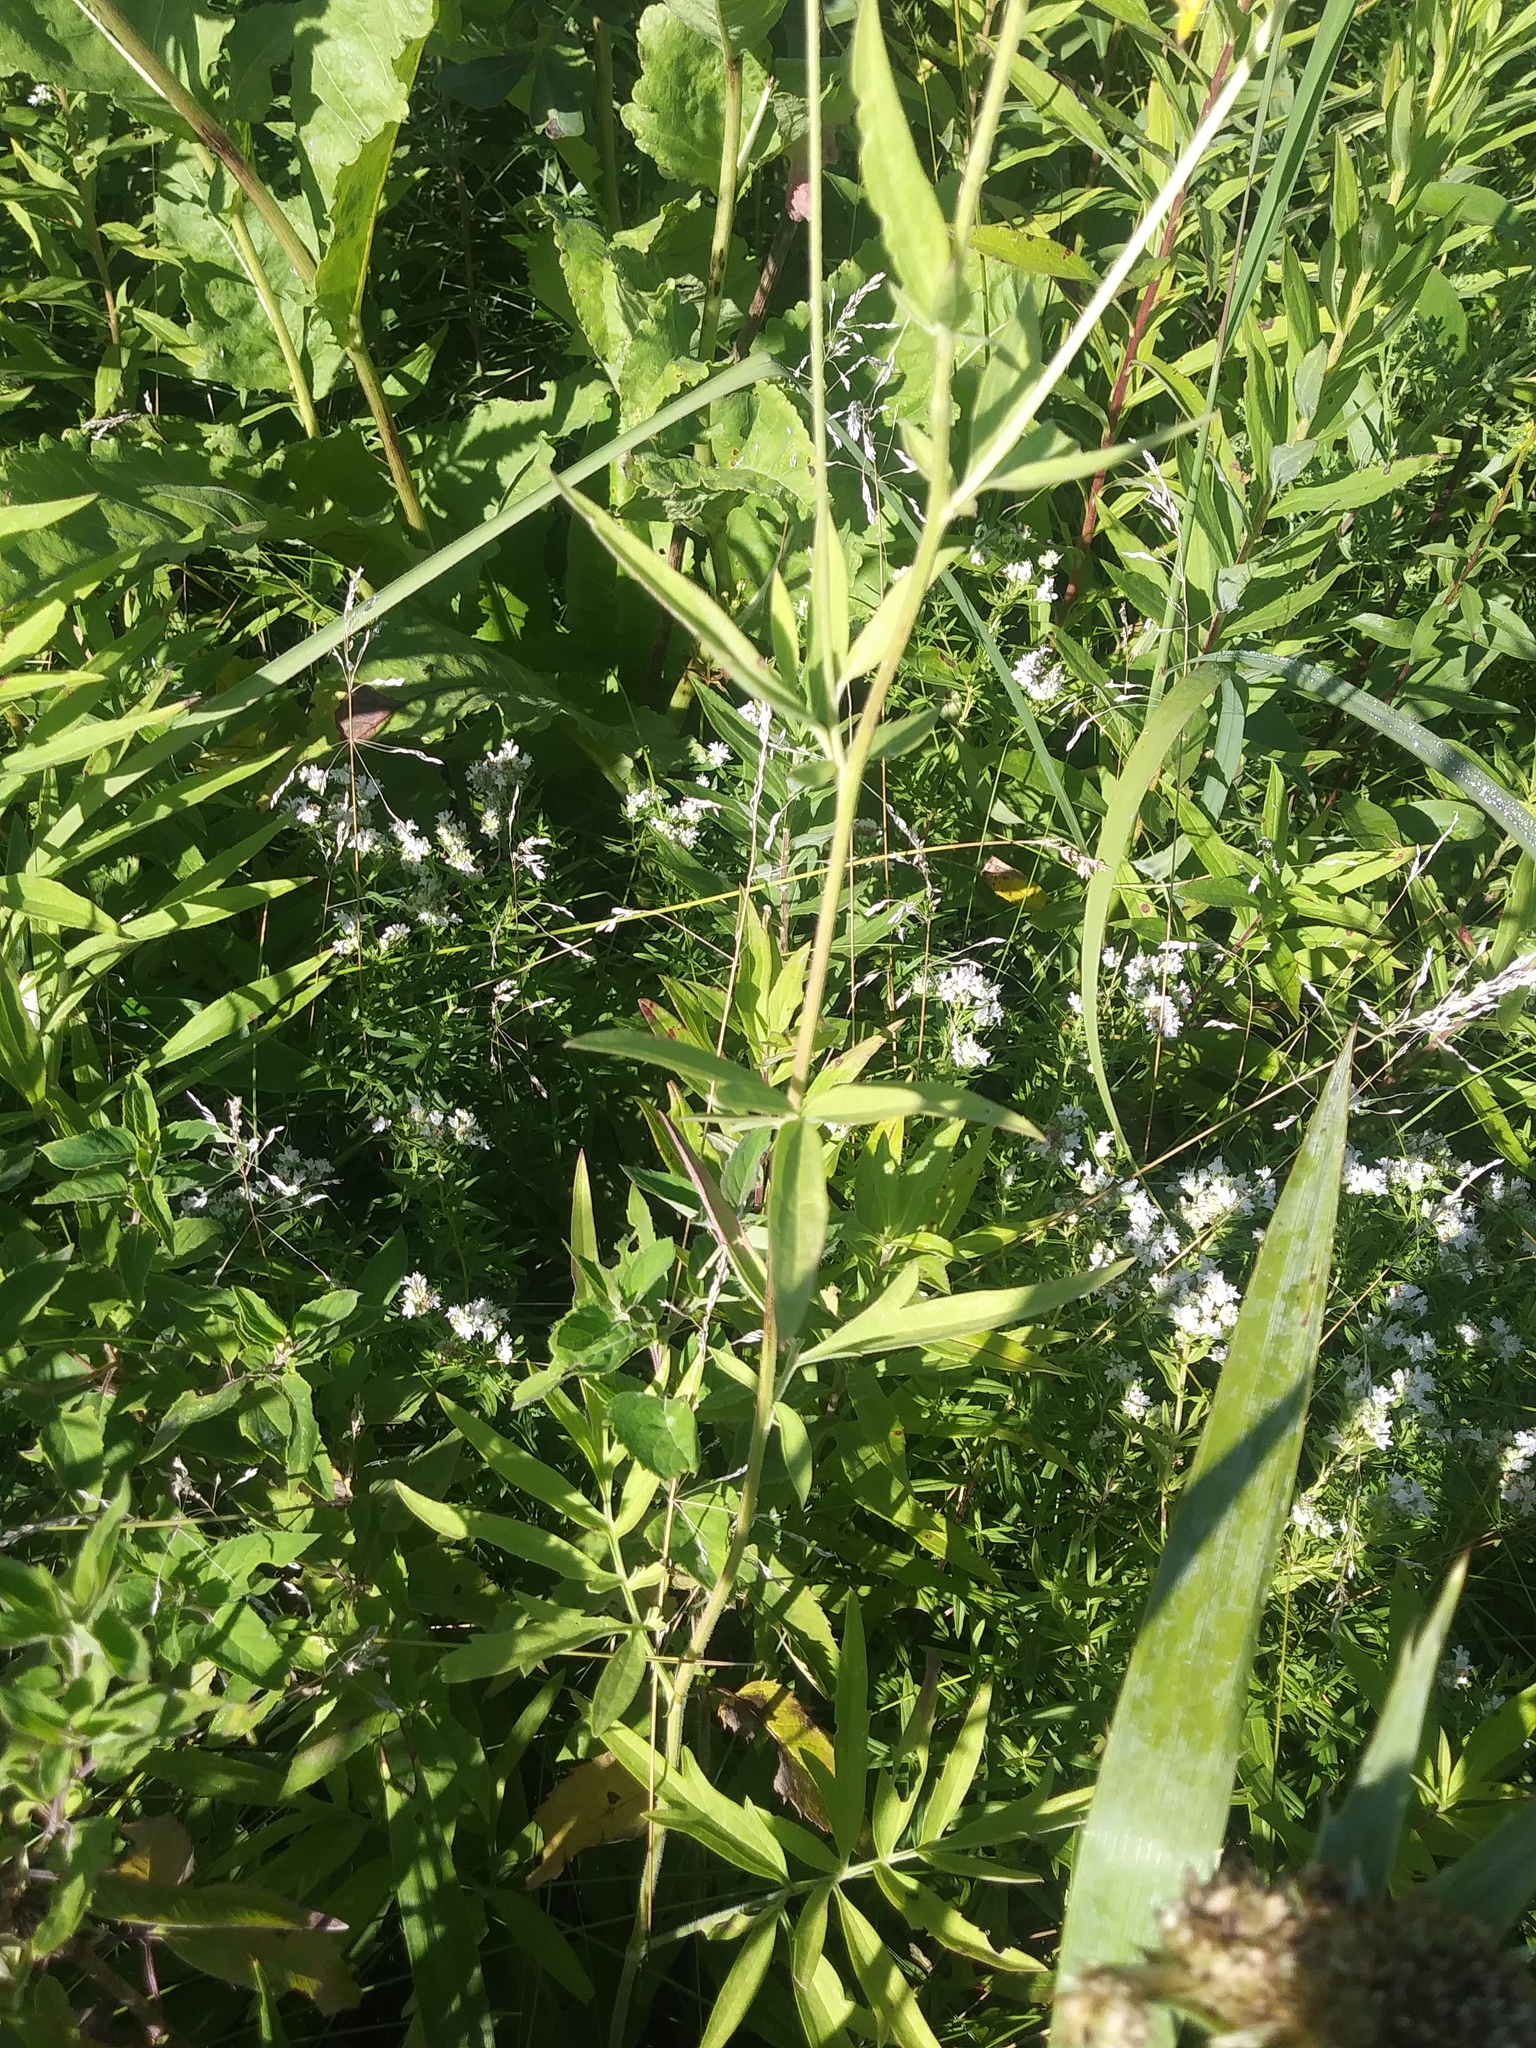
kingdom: Plantae
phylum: Tracheophyta
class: Magnoliopsida
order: Asterales
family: Asteraceae
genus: Ratibida
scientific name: Ratibida pinnata
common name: Drooping prairie-coneflower
